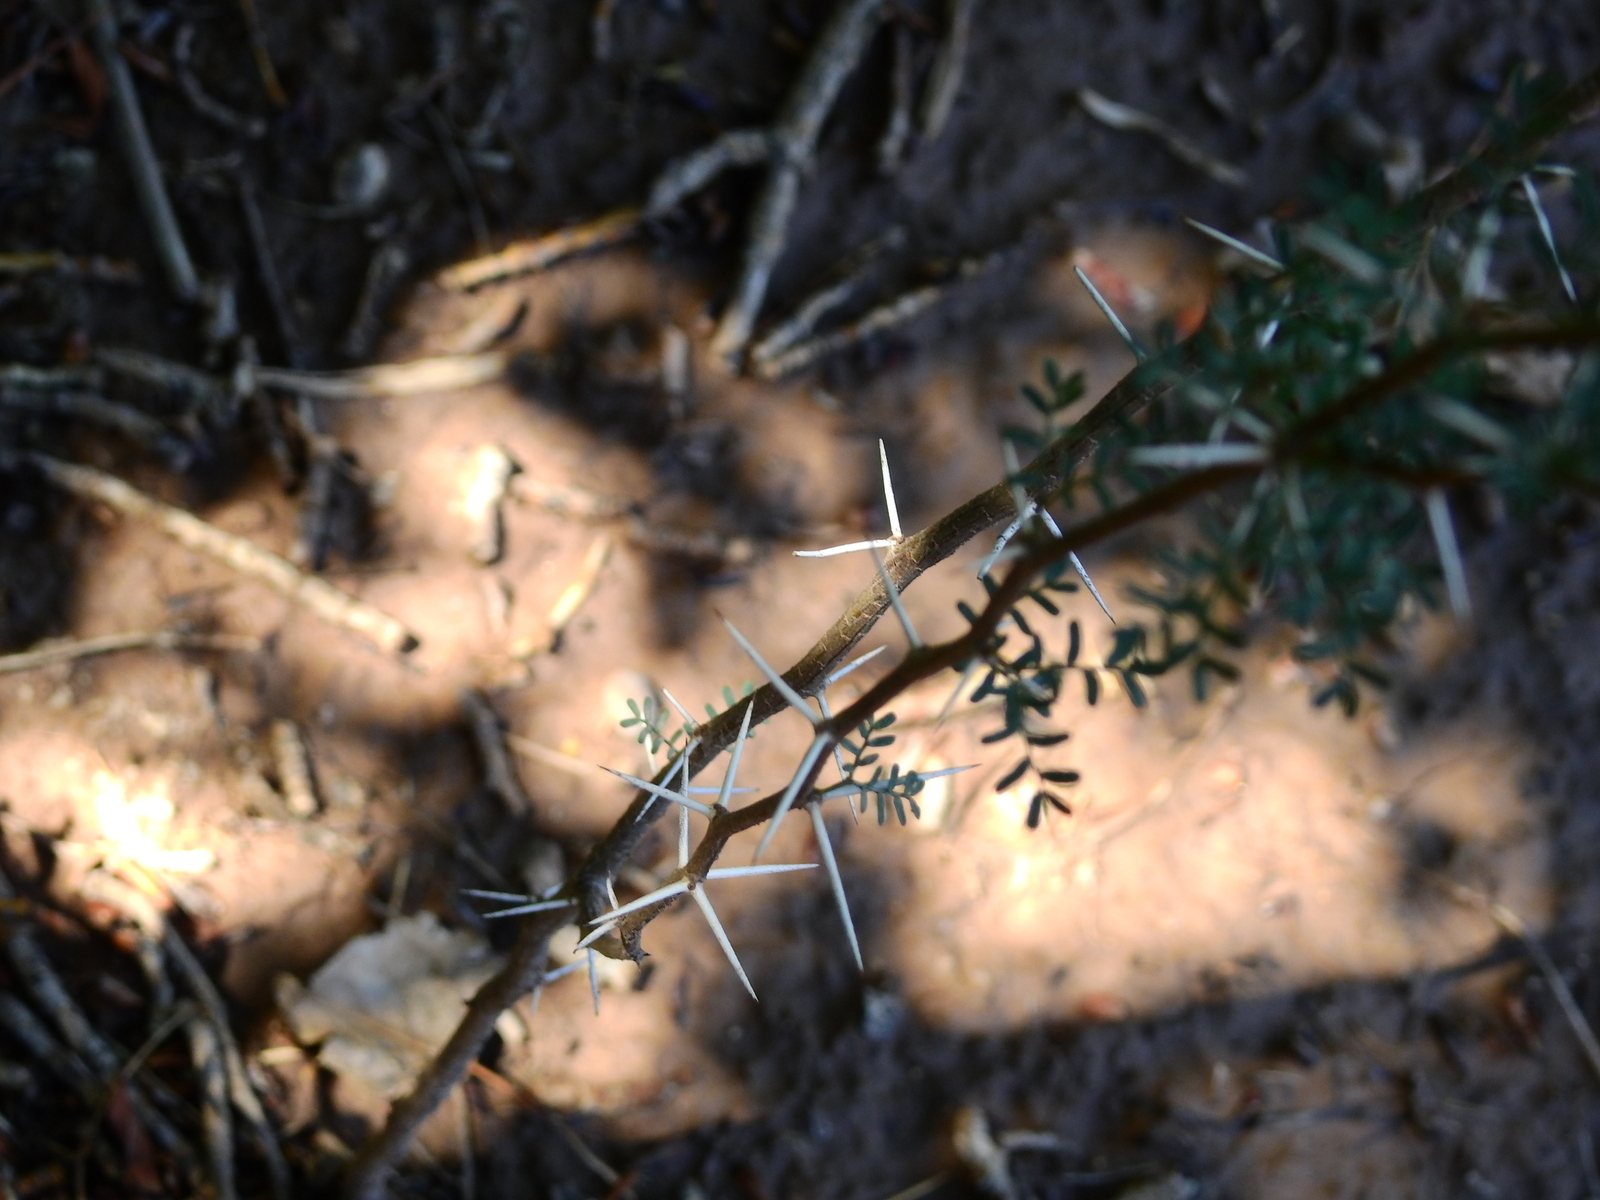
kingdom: Plantae
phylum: Tracheophyta
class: Magnoliopsida
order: Fabales
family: Fabaceae
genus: Prosopis
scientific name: Prosopis strombulifera
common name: Creeping mesquite
